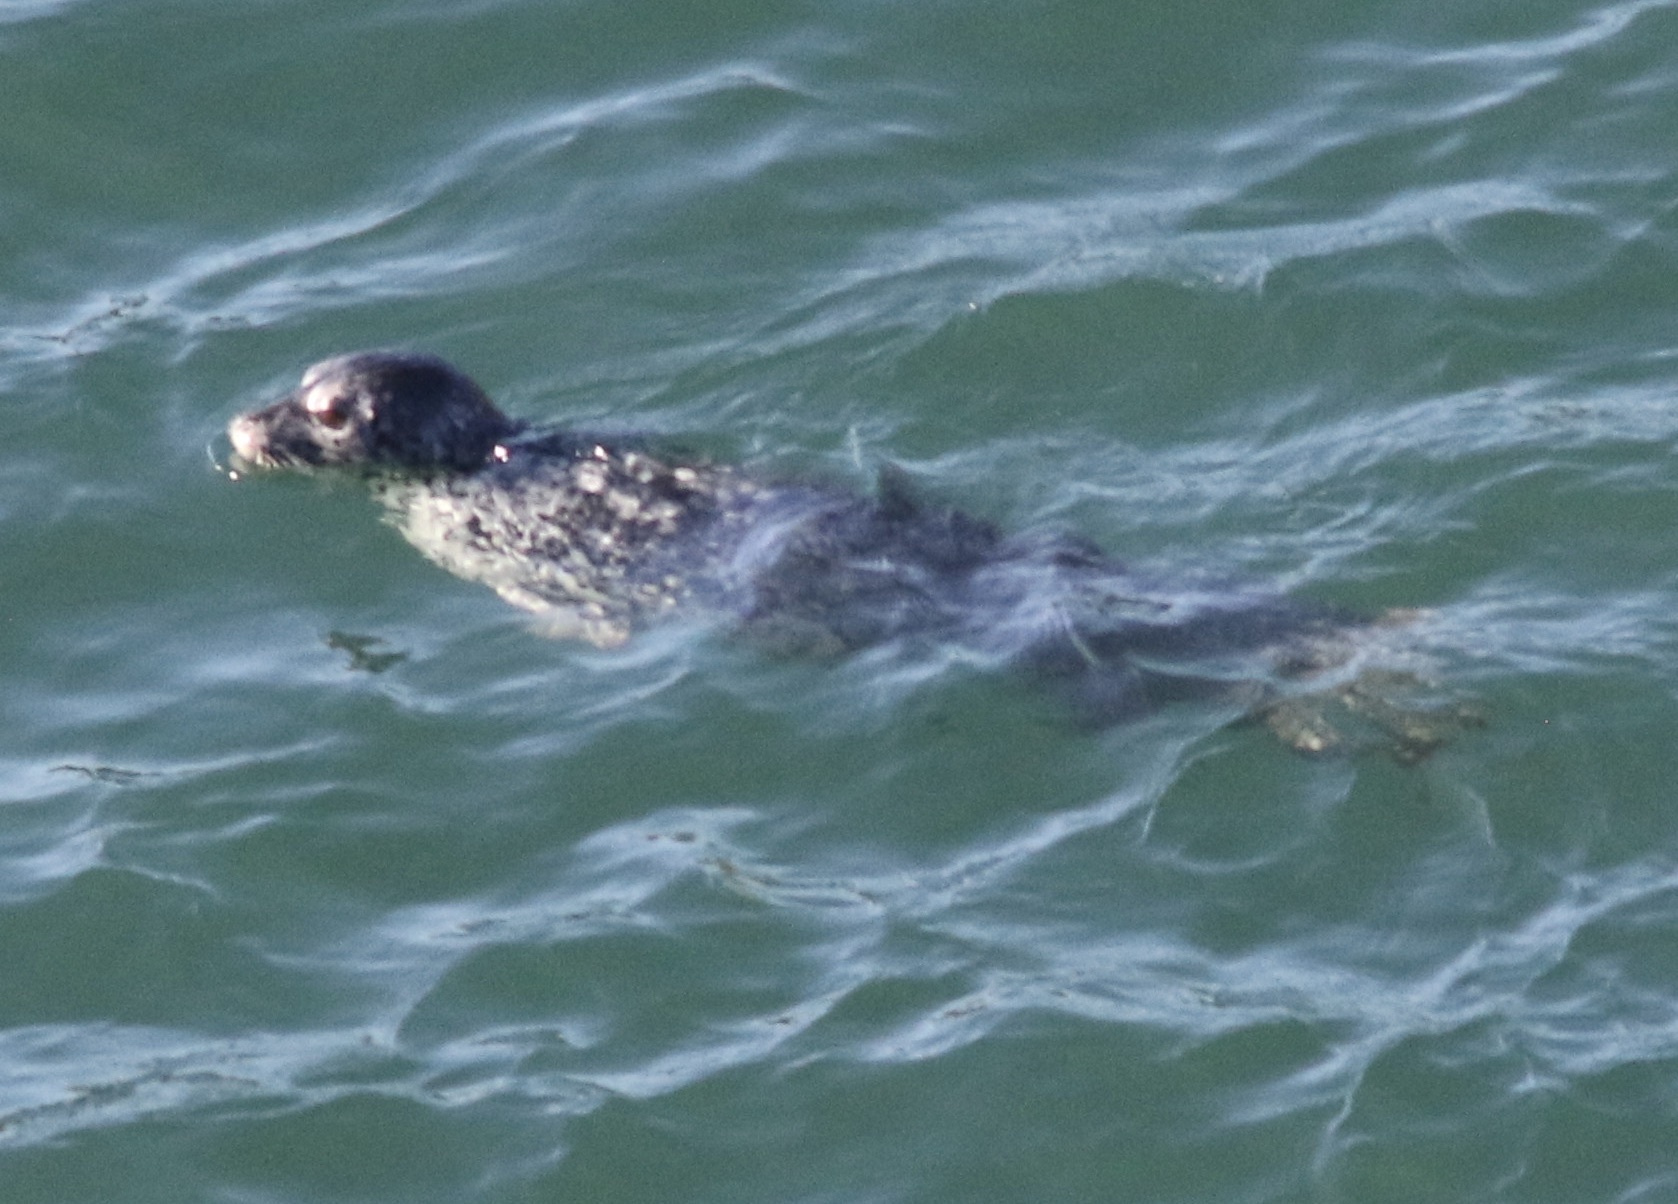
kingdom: Animalia
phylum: Chordata
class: Mammalia
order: Carnivora
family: Phocidae
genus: Phoca
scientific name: Phoca vitulina
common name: Harbor seal
